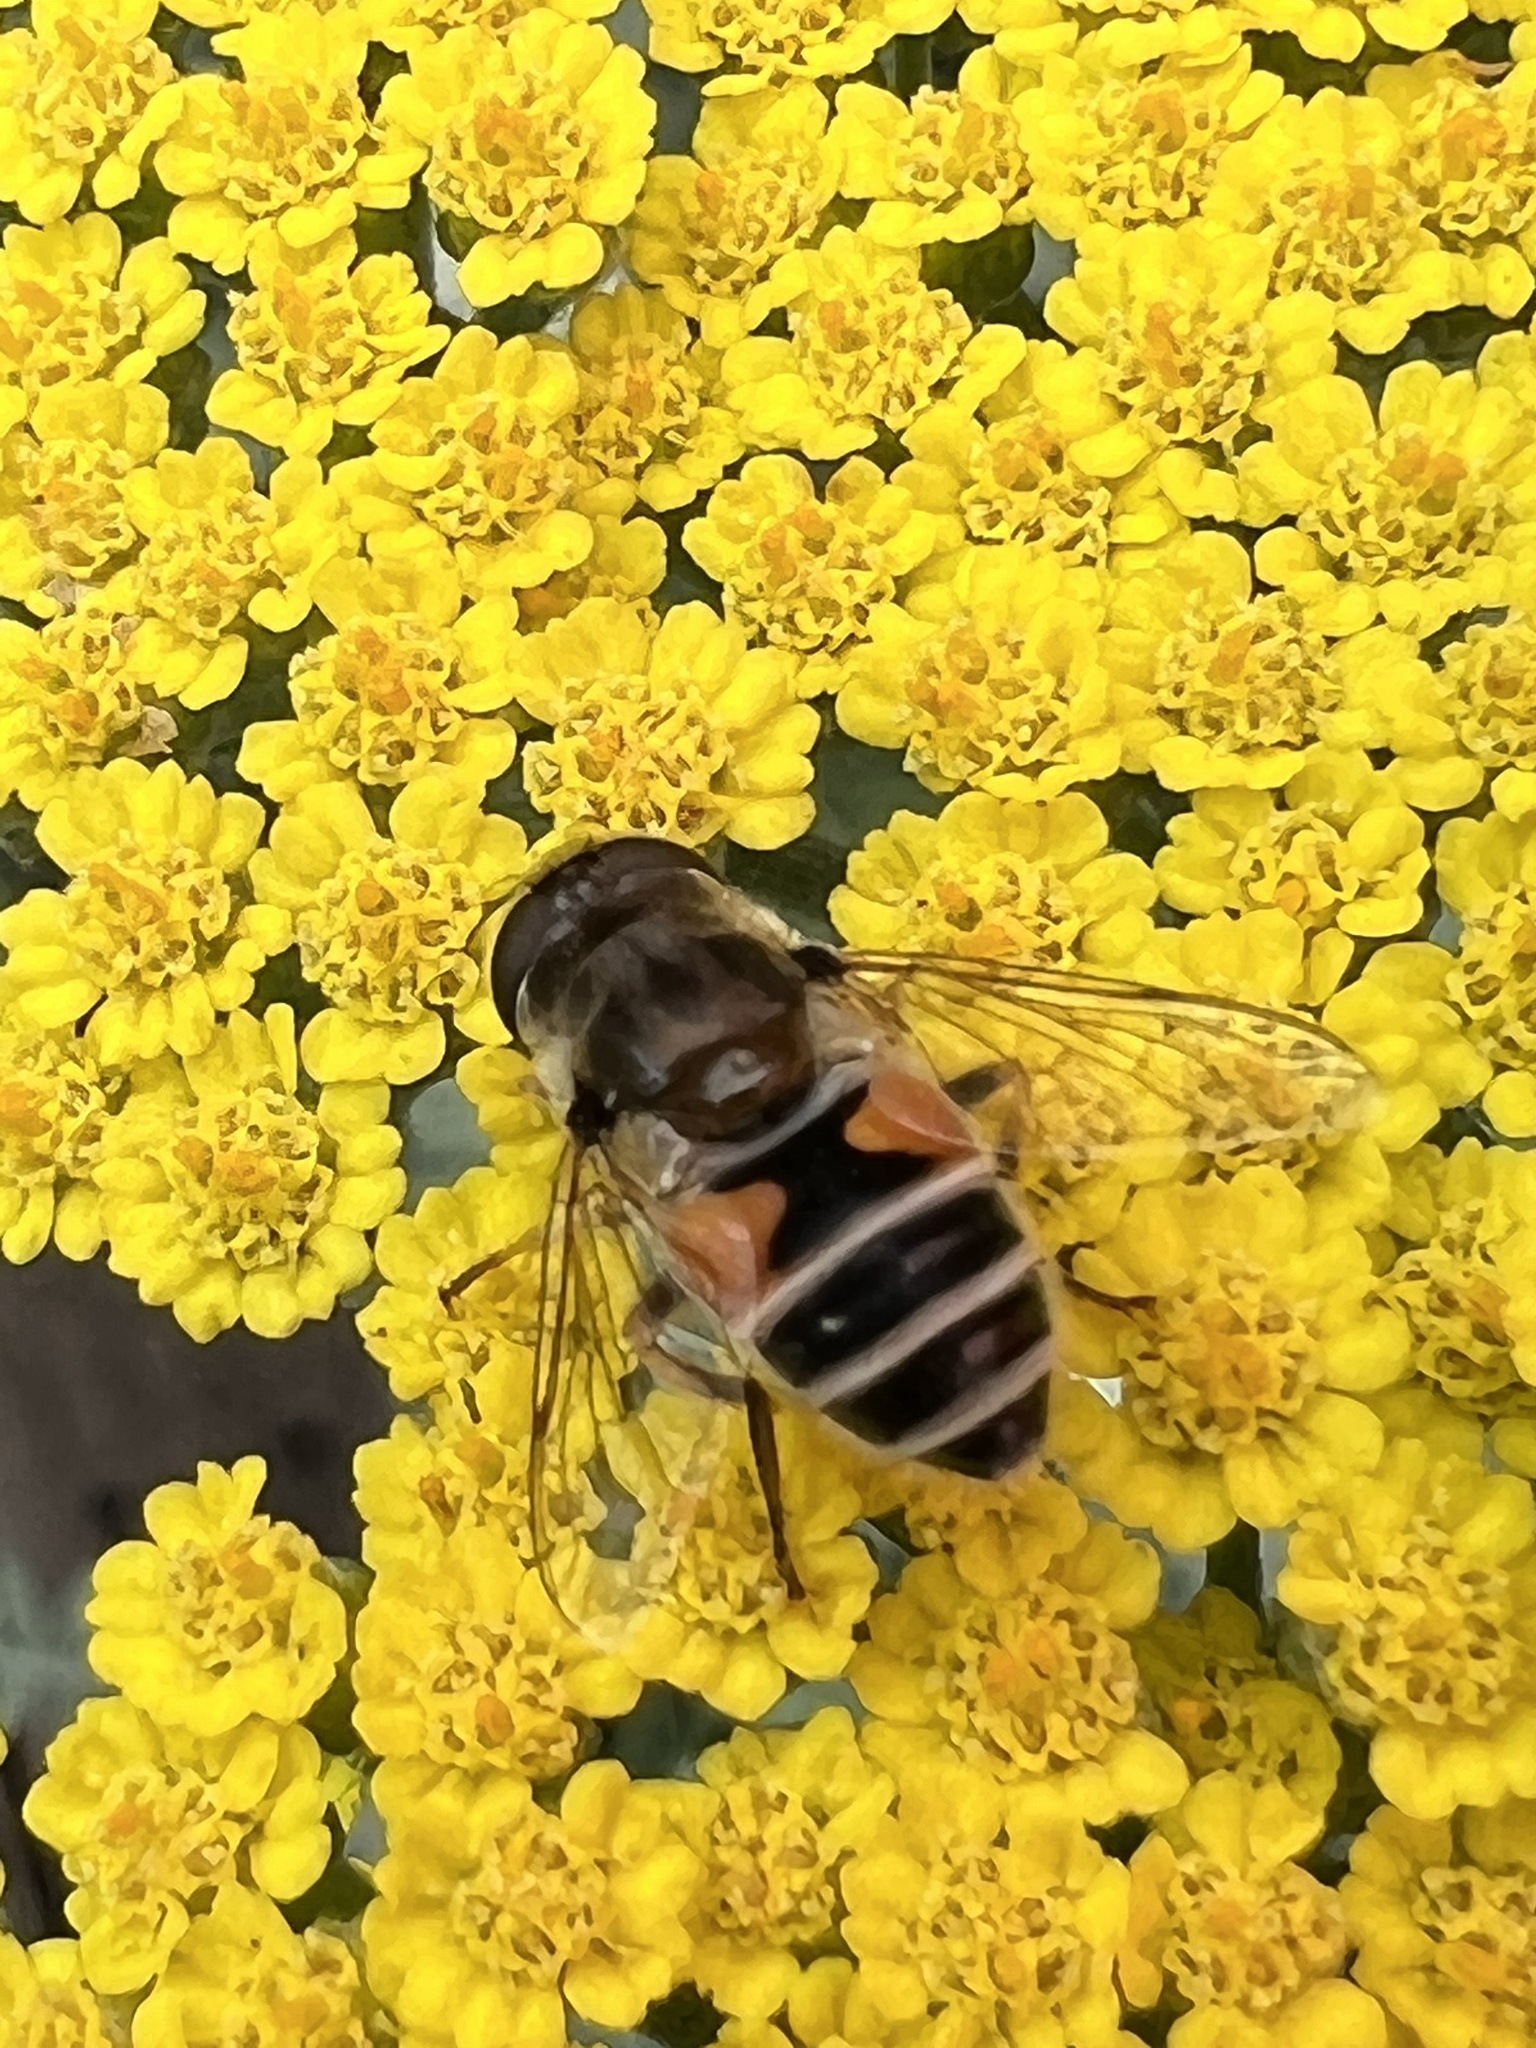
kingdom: Animalia
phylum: Arthropoda
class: Insecta
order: Diptera
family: Syrphidae
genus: Eristalis
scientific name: Eristalis arbustorum
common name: Hover fly
